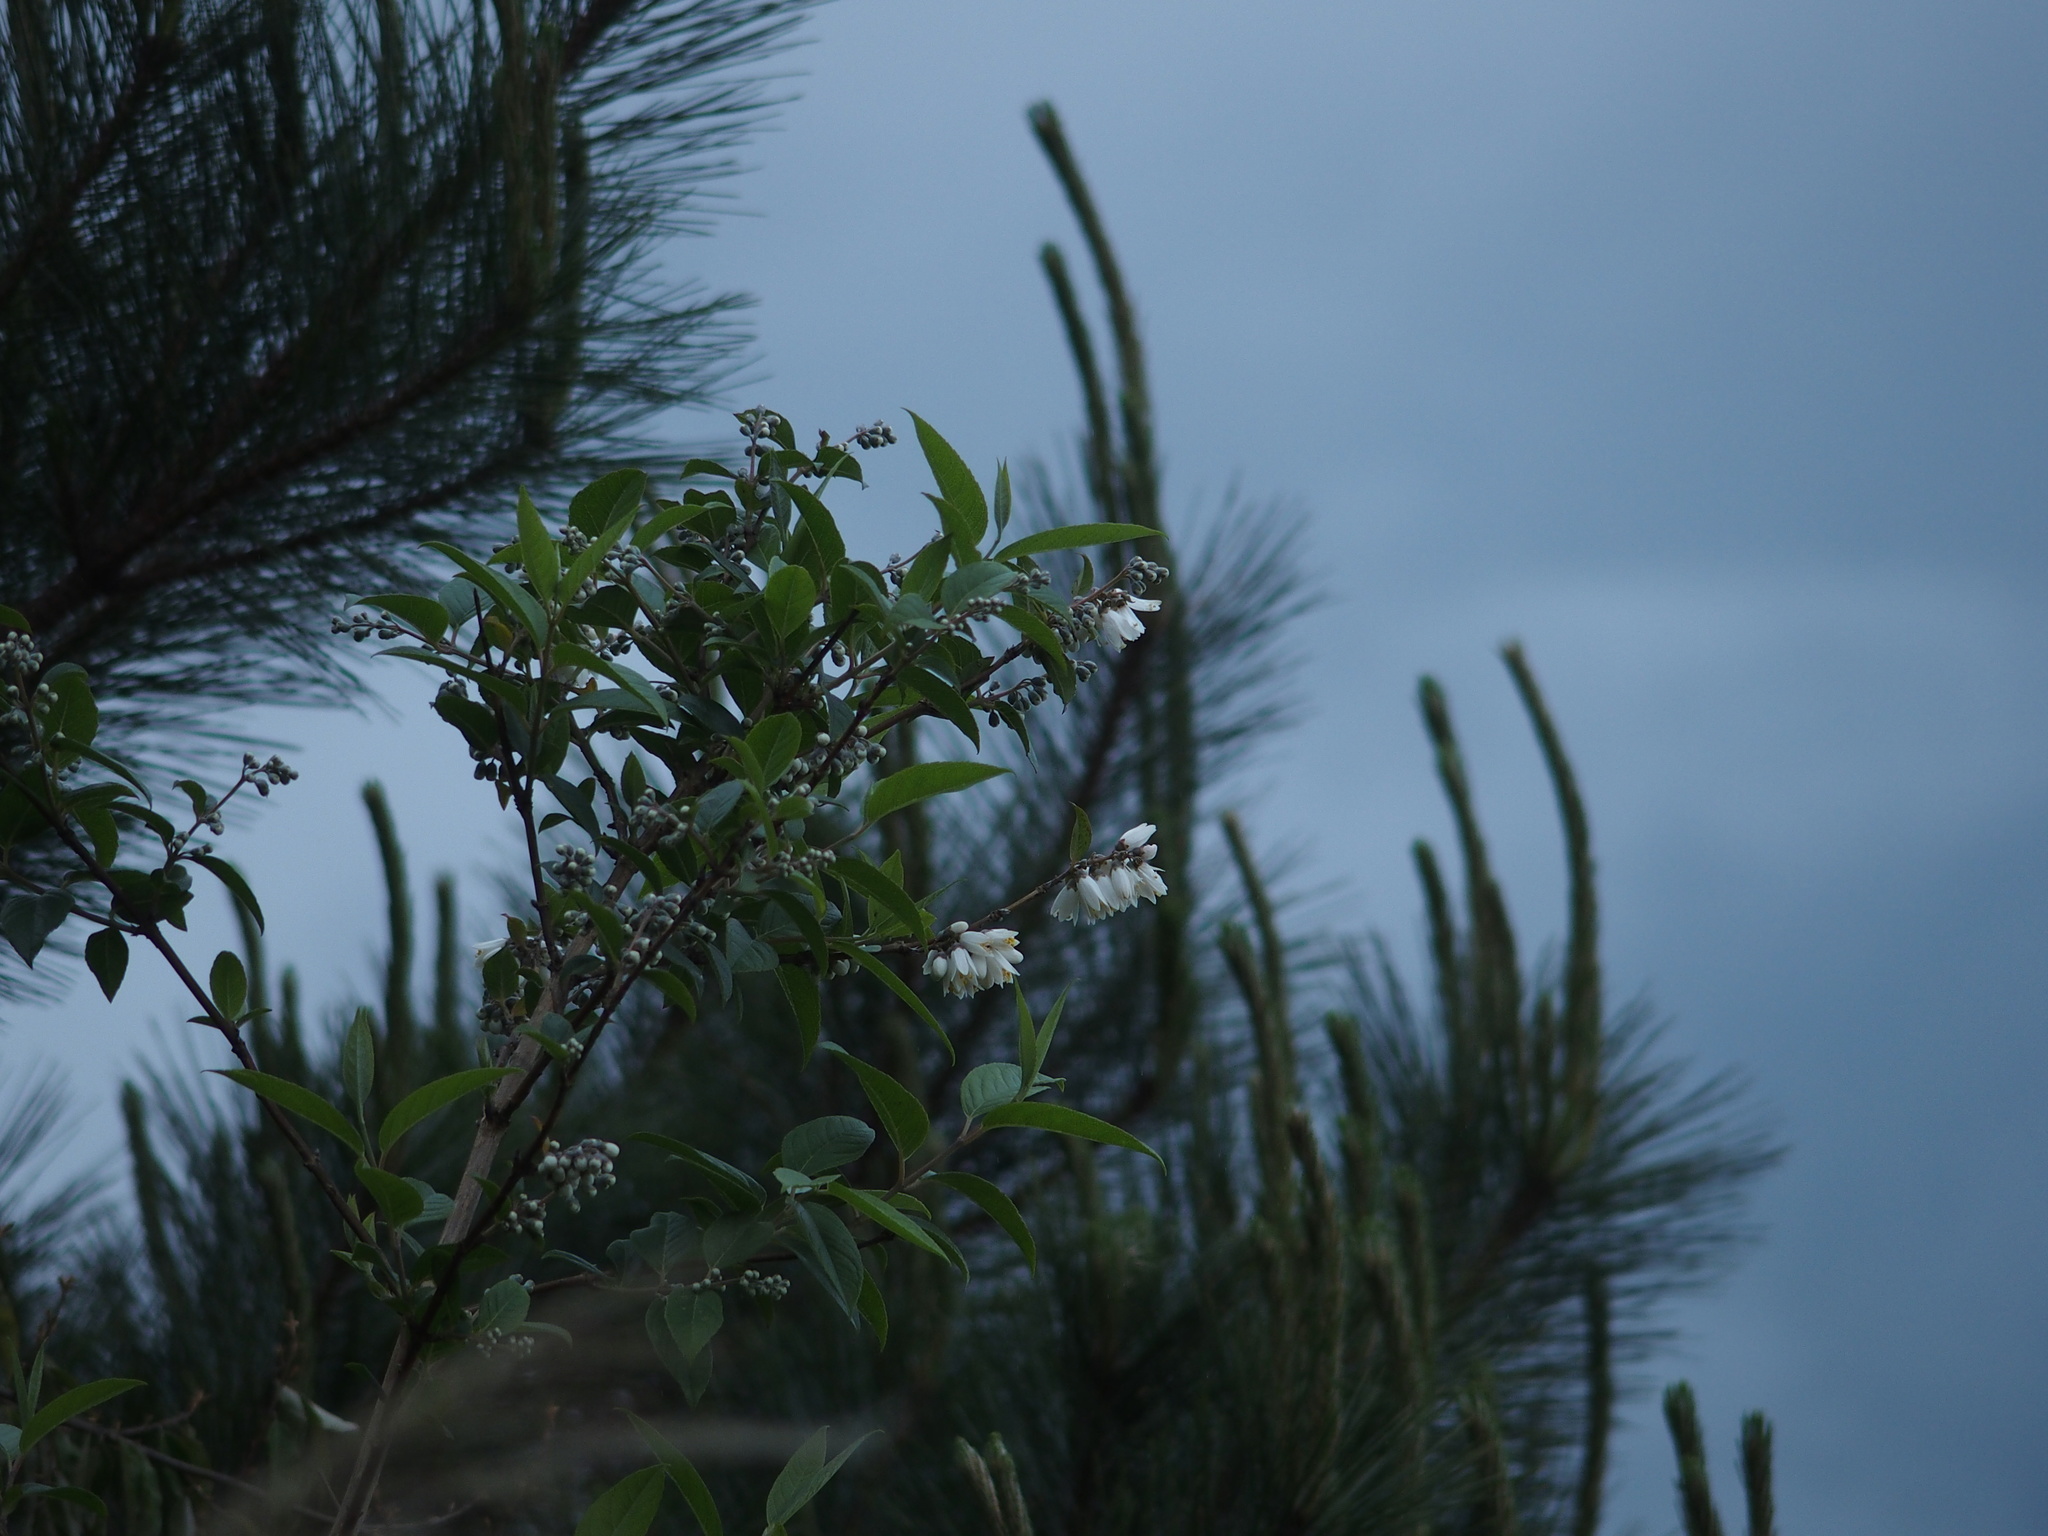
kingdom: Plantae
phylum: Tracheophyta
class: Magnoliopsida
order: Cornales
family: Hydrangeaceae
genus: Deutzia
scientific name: Deutzia pulchra
